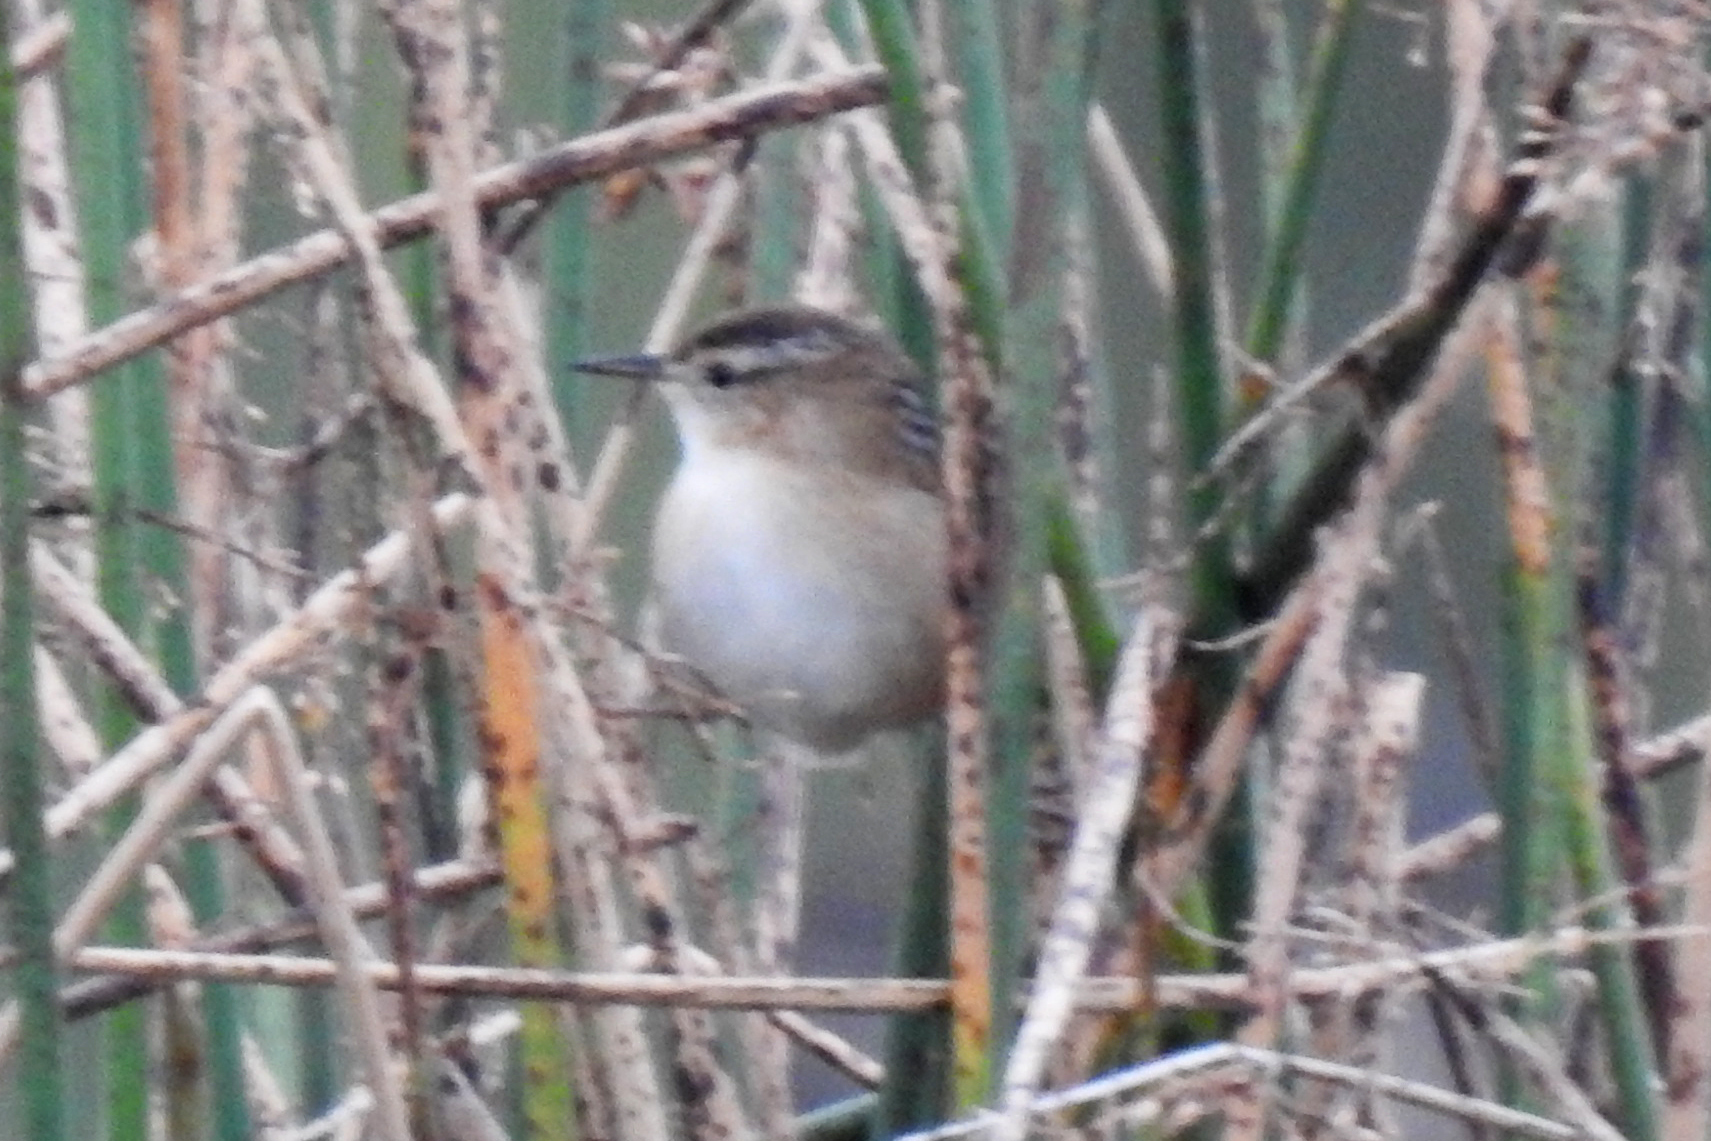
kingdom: Animalia
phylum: Chordata
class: Aves
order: Passeriformes
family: Troglodytidae
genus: Cistothorus
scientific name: Cistothorus palustris
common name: Marsh wren
